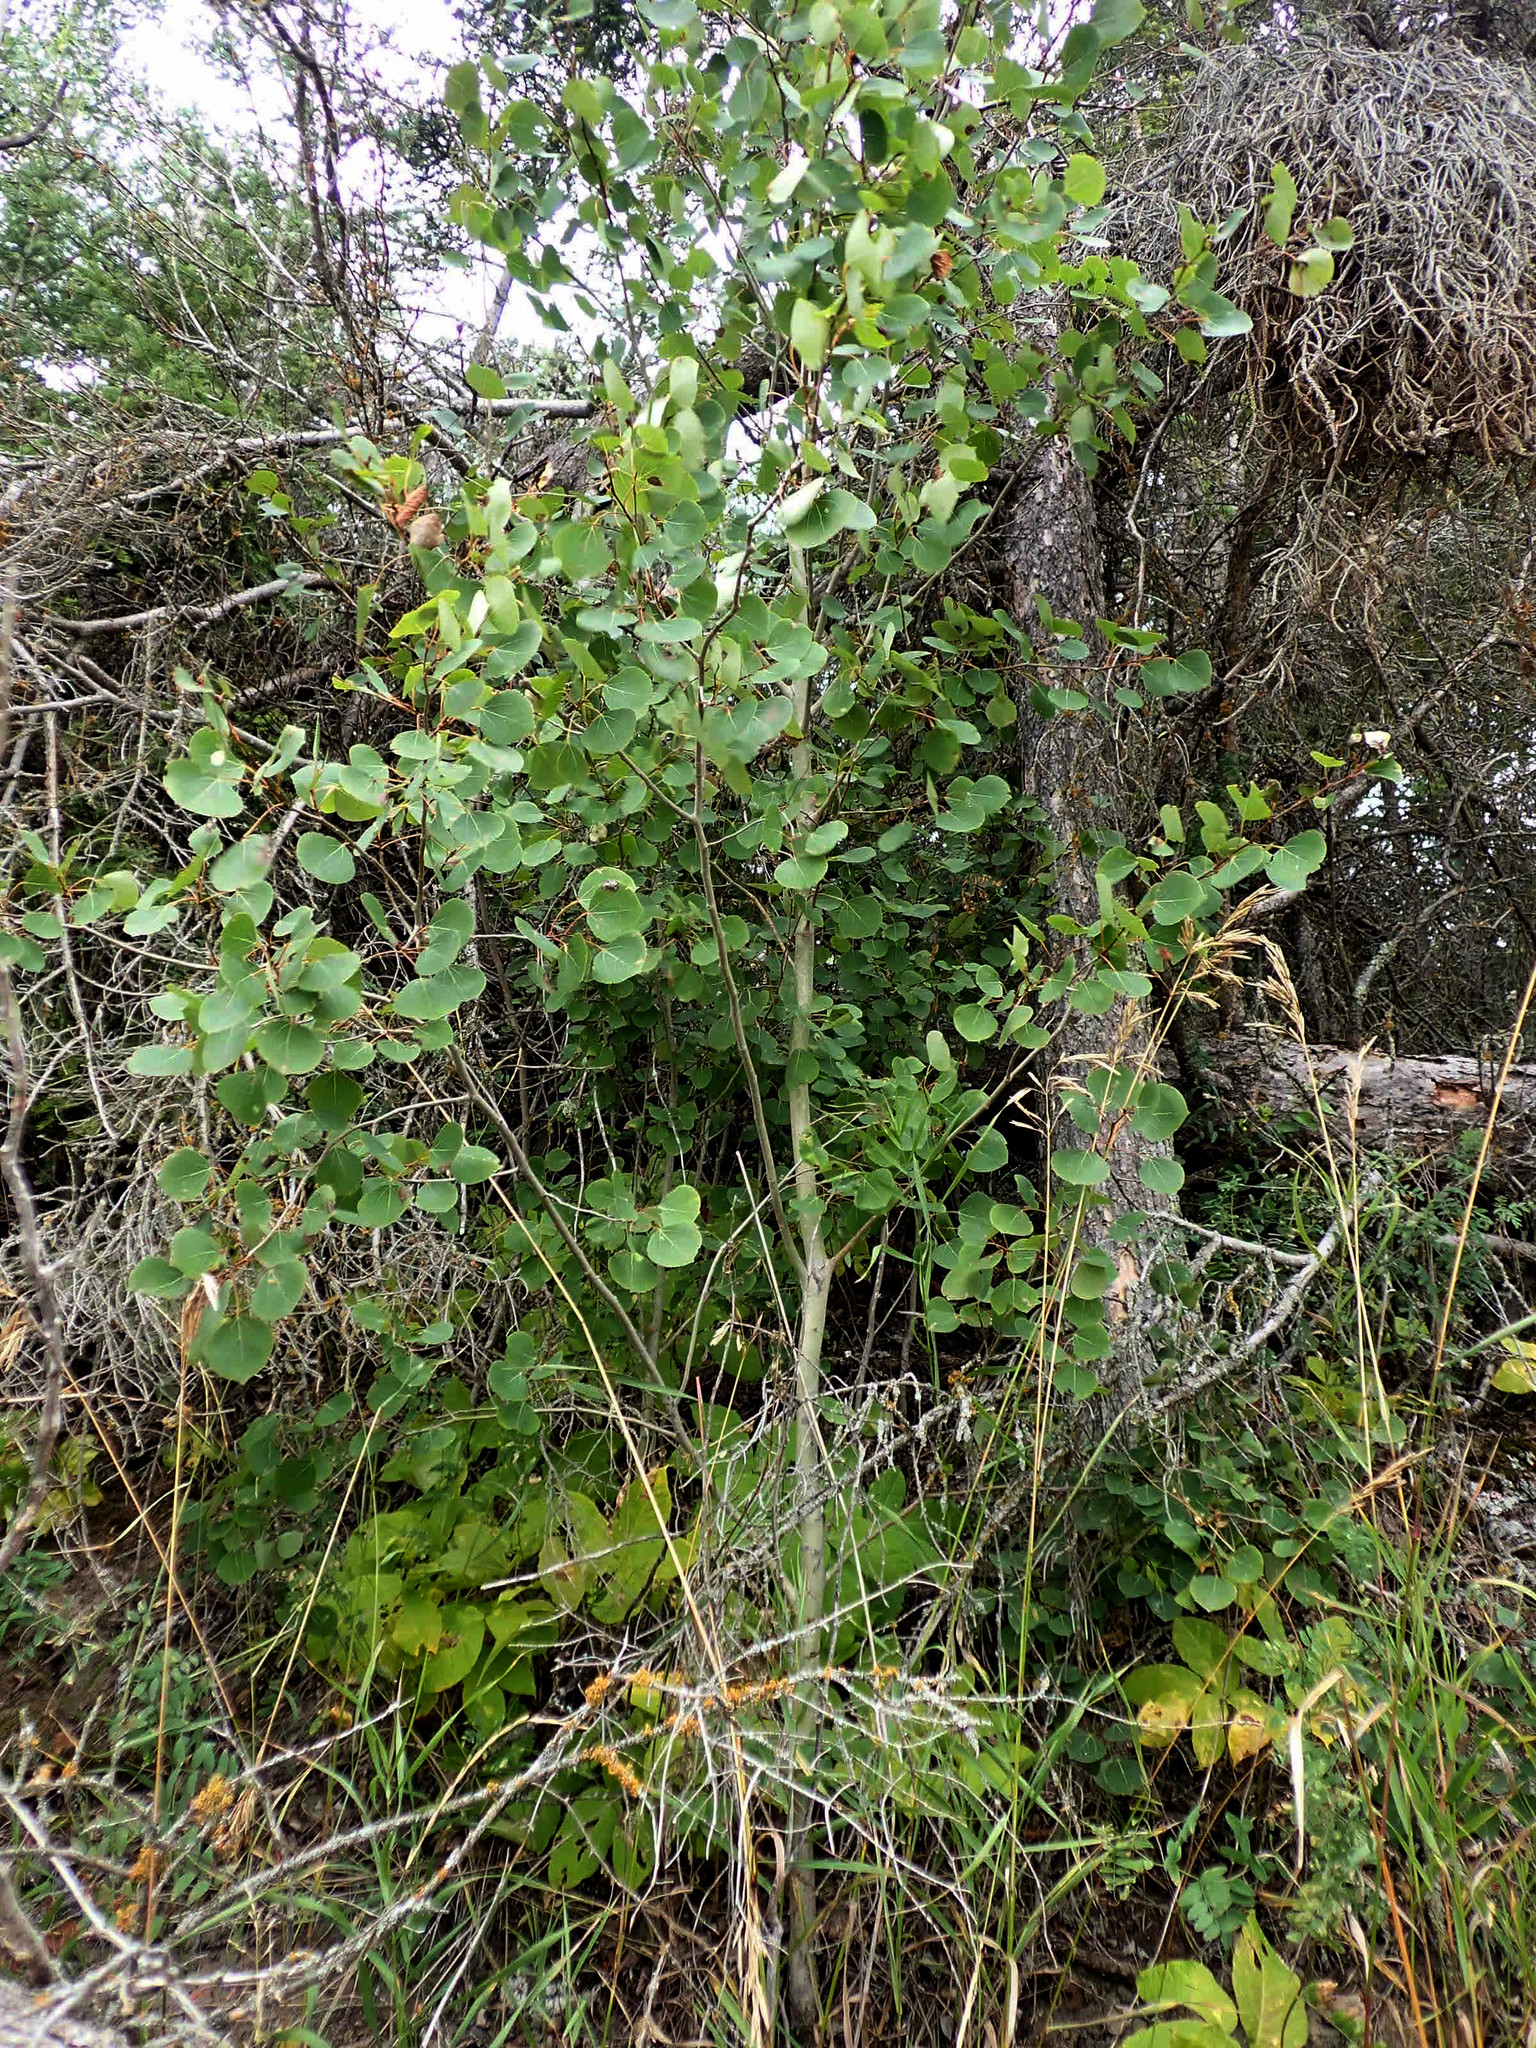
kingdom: Plantae
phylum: Tracheophyta
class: Magnoliopsida
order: Malpighiales
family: Salicaceae
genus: Populus
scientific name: Populus tremuloides
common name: Quaking aspen
